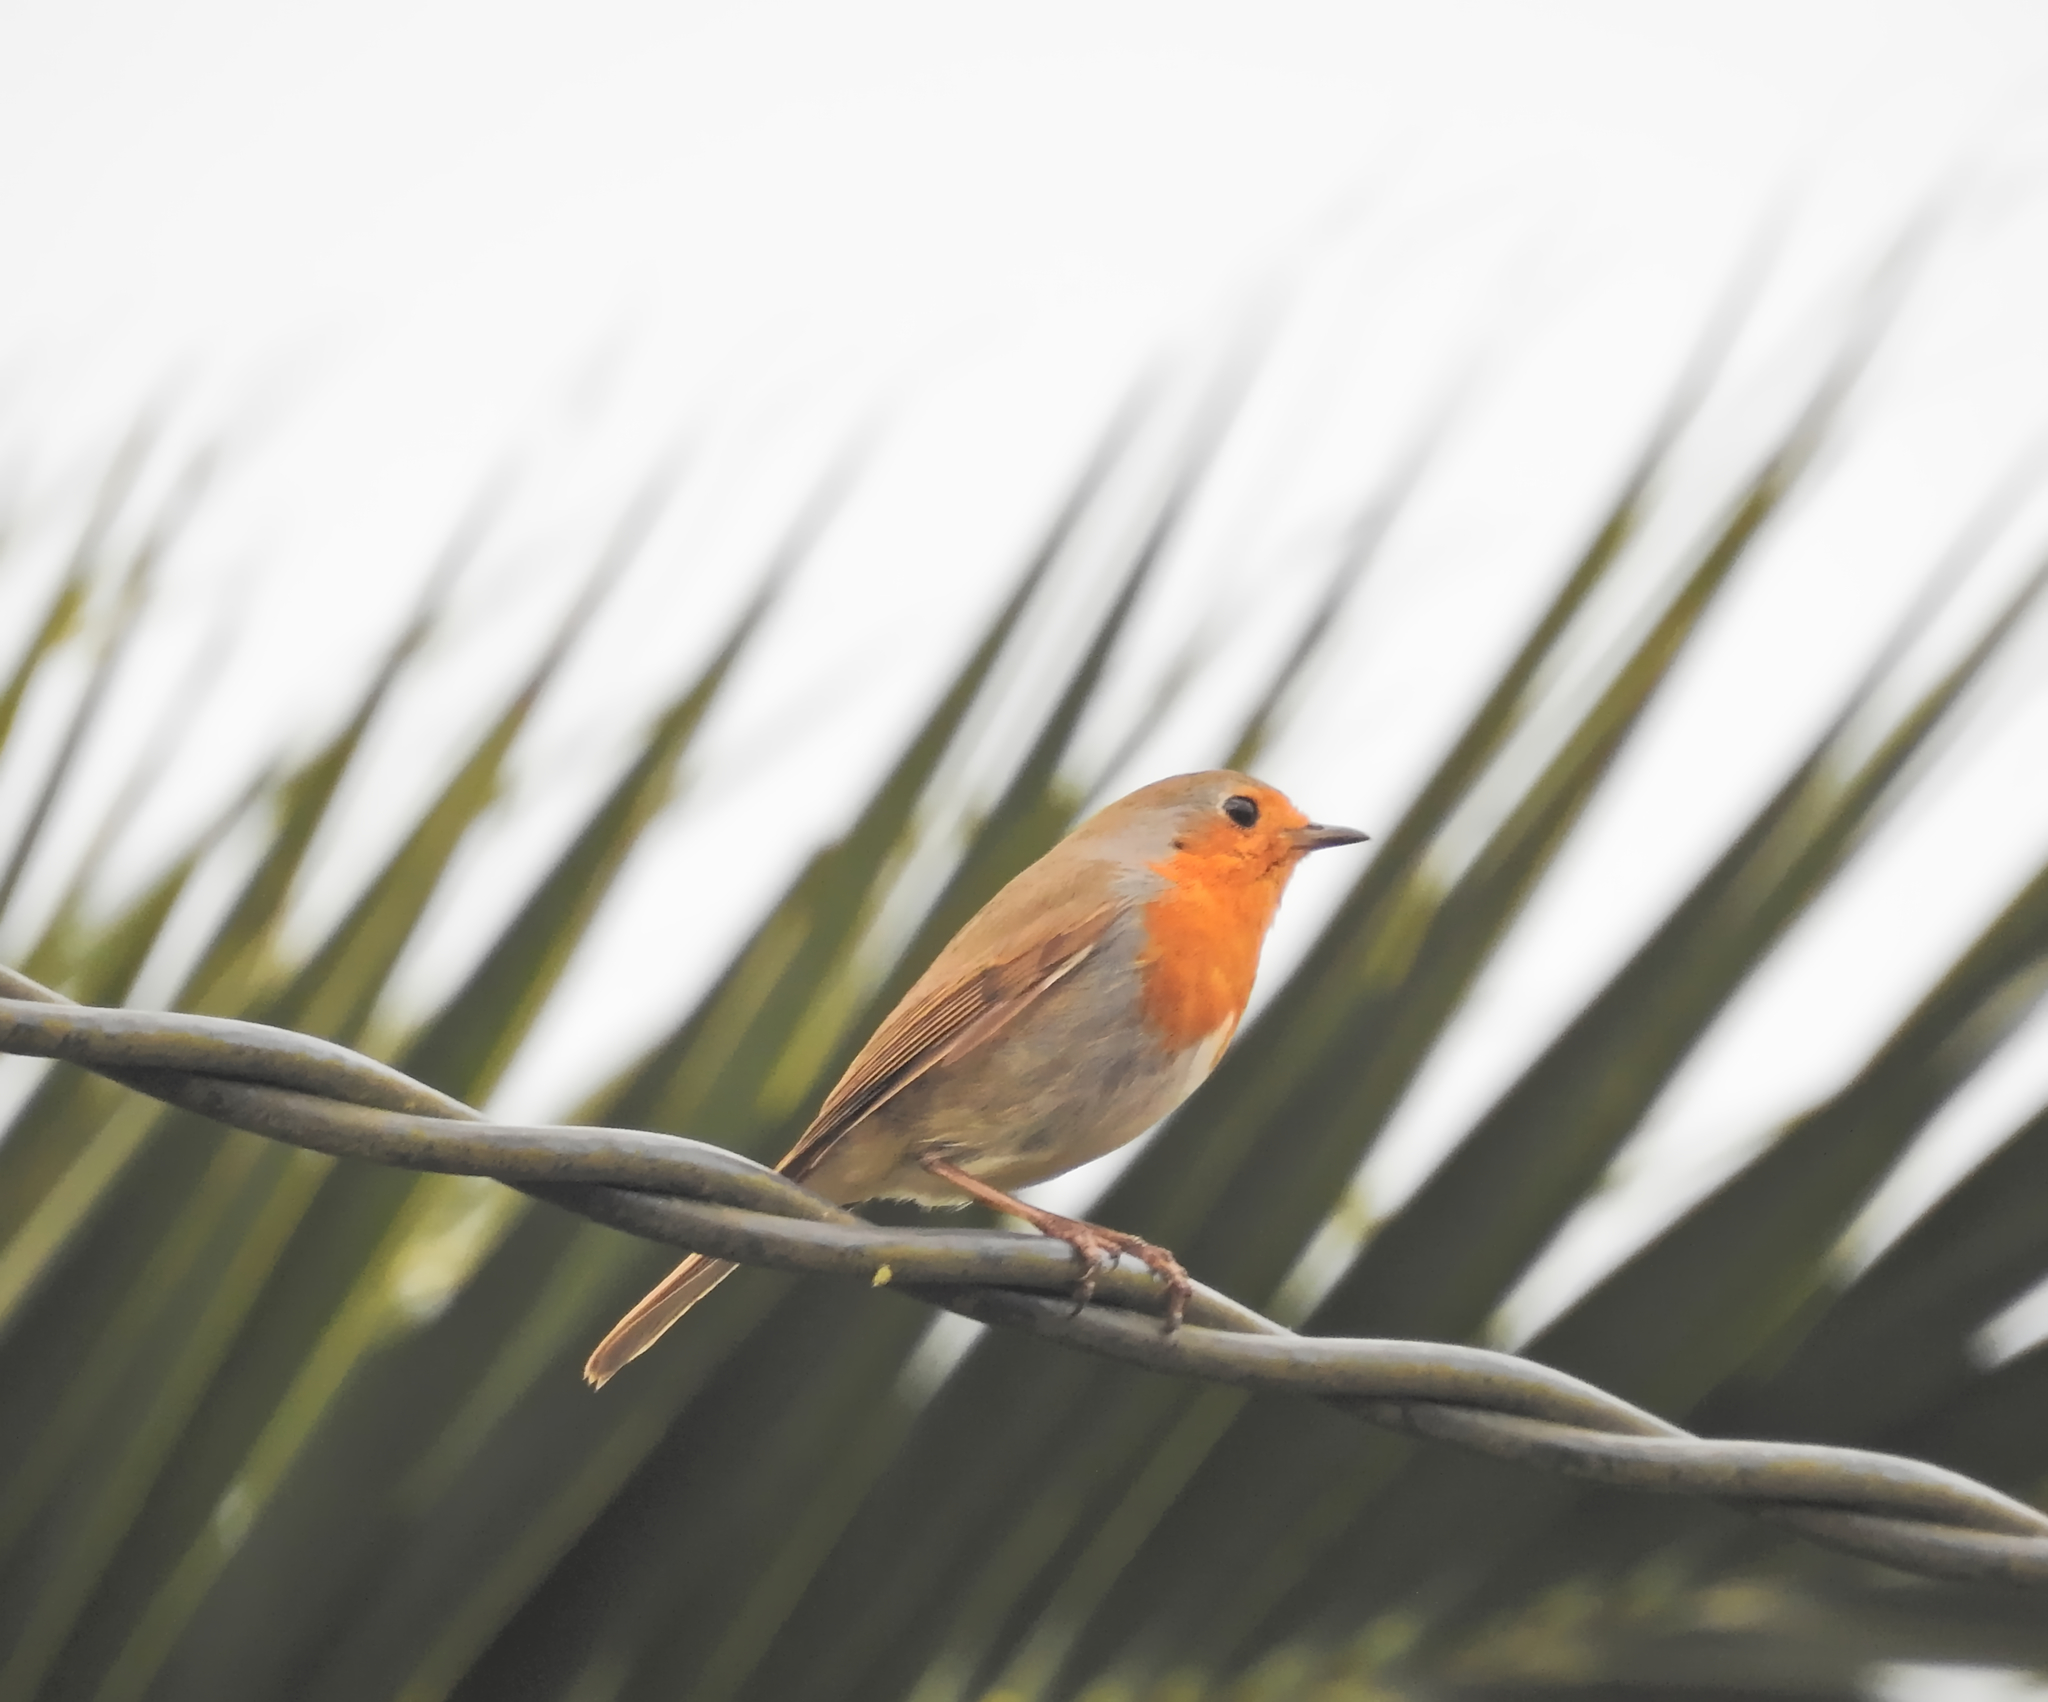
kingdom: Animalia
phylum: Chordata
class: Aves
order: Passeriformes
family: Muscicapidae
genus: Erithacus
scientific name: Erithacus rubecula
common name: European robin
